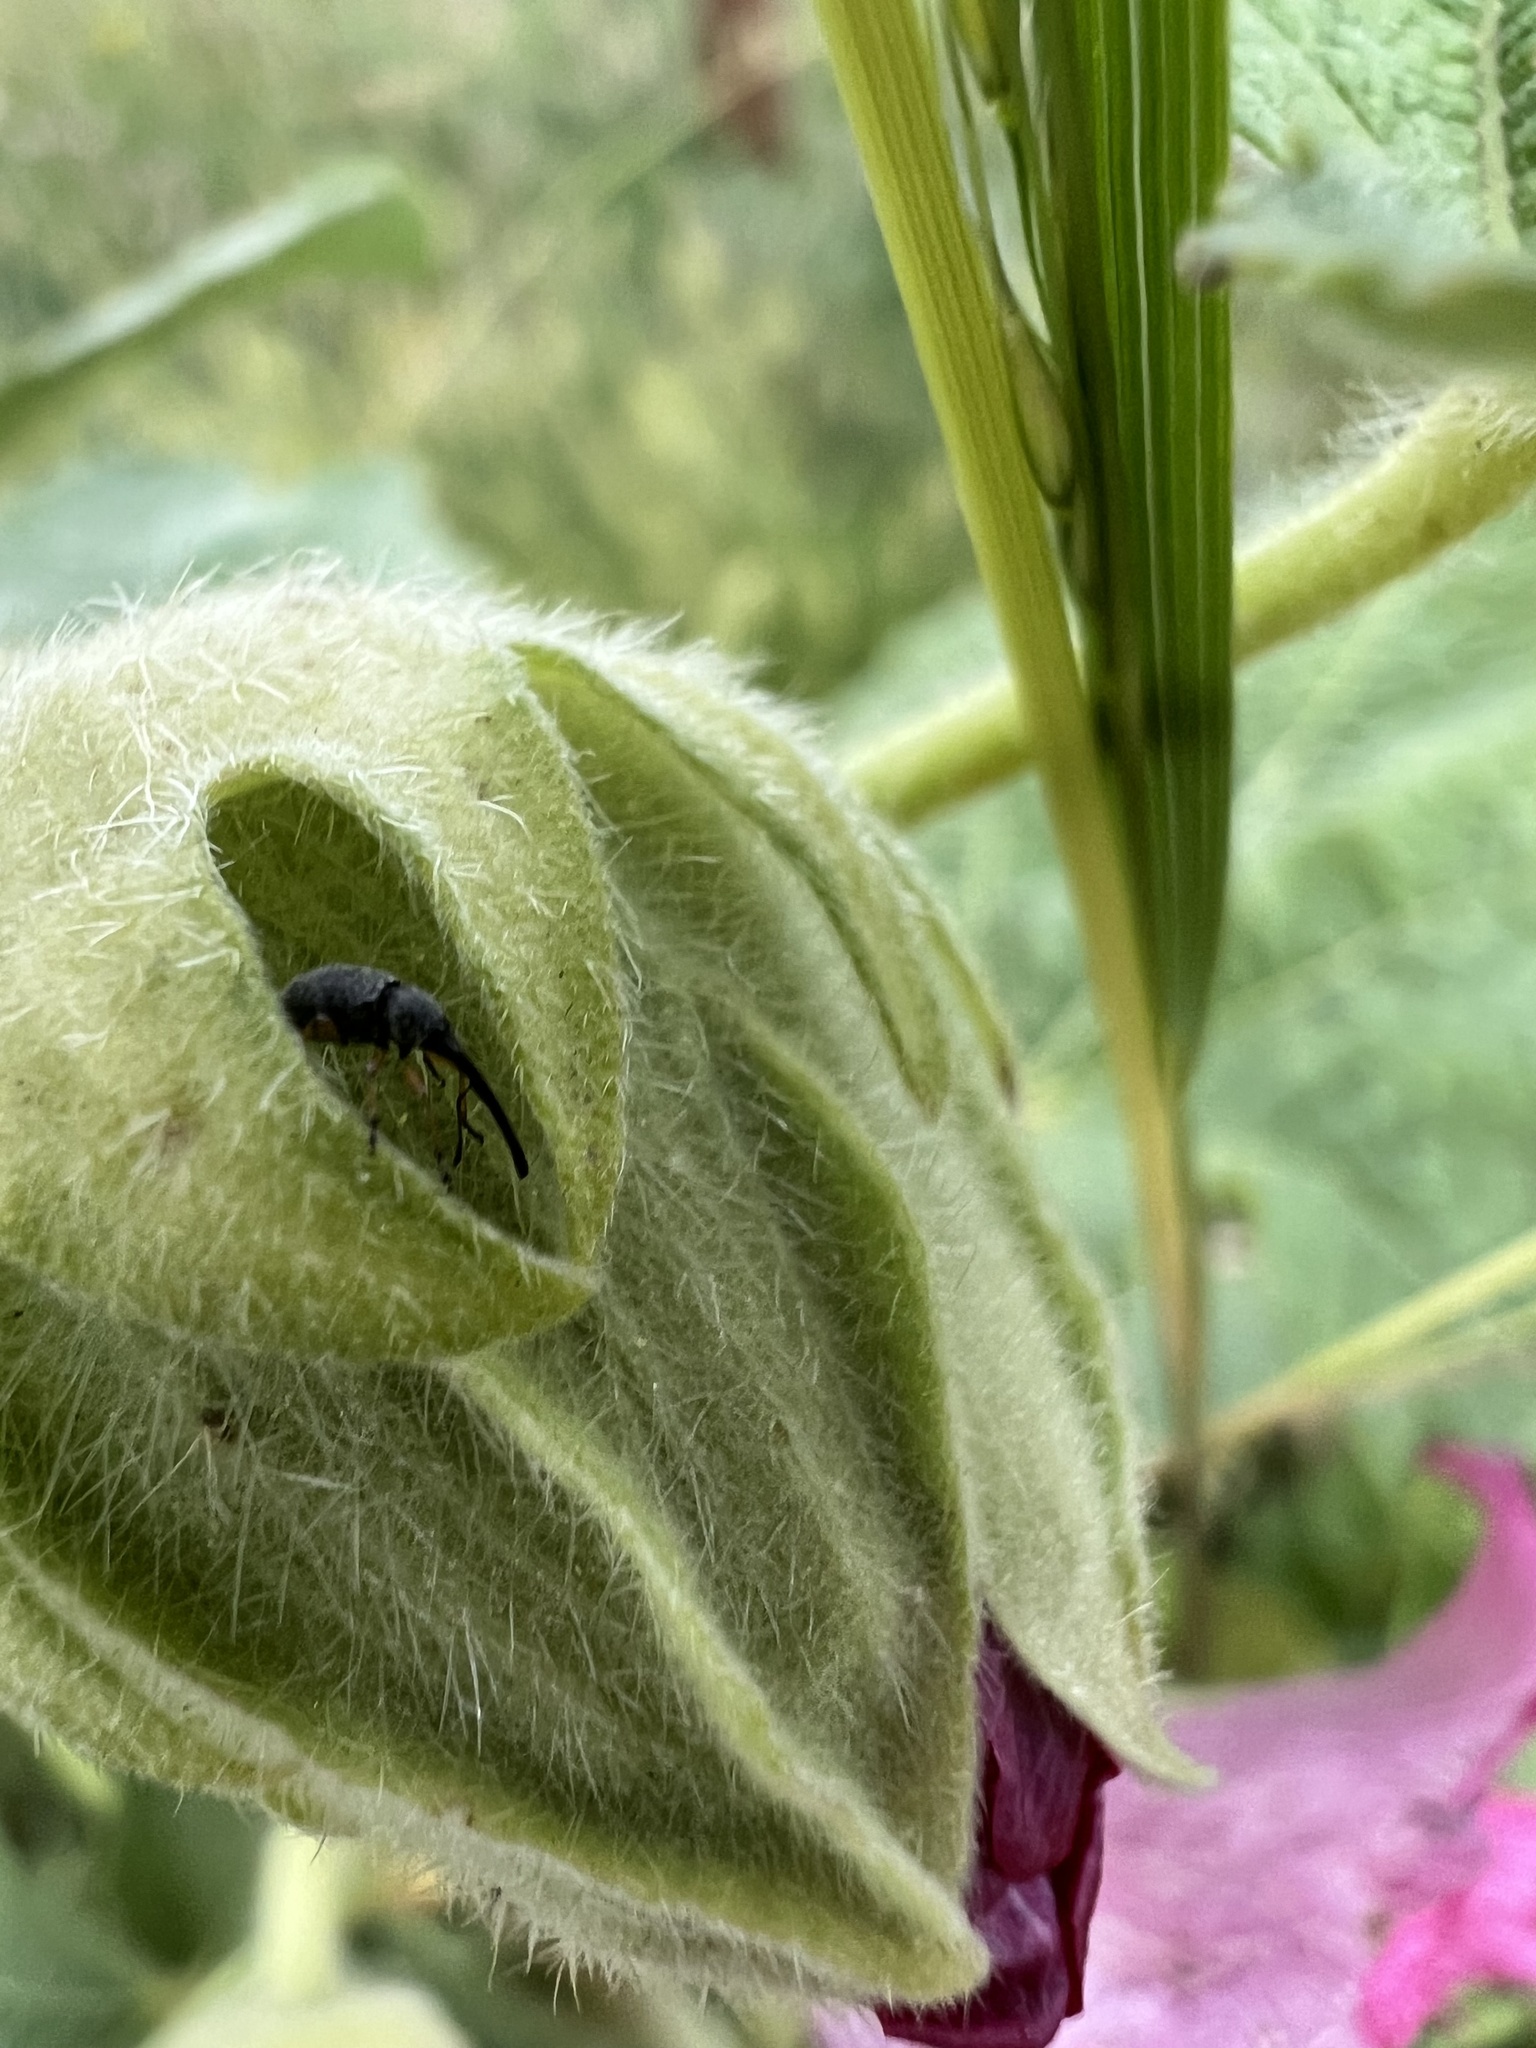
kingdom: Animalia
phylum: Arthropoda
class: Insecta
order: Coleoptera
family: Brentidae
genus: Rhopalapion
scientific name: Rhopalapion longirostre
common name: Hollyhock weevil
